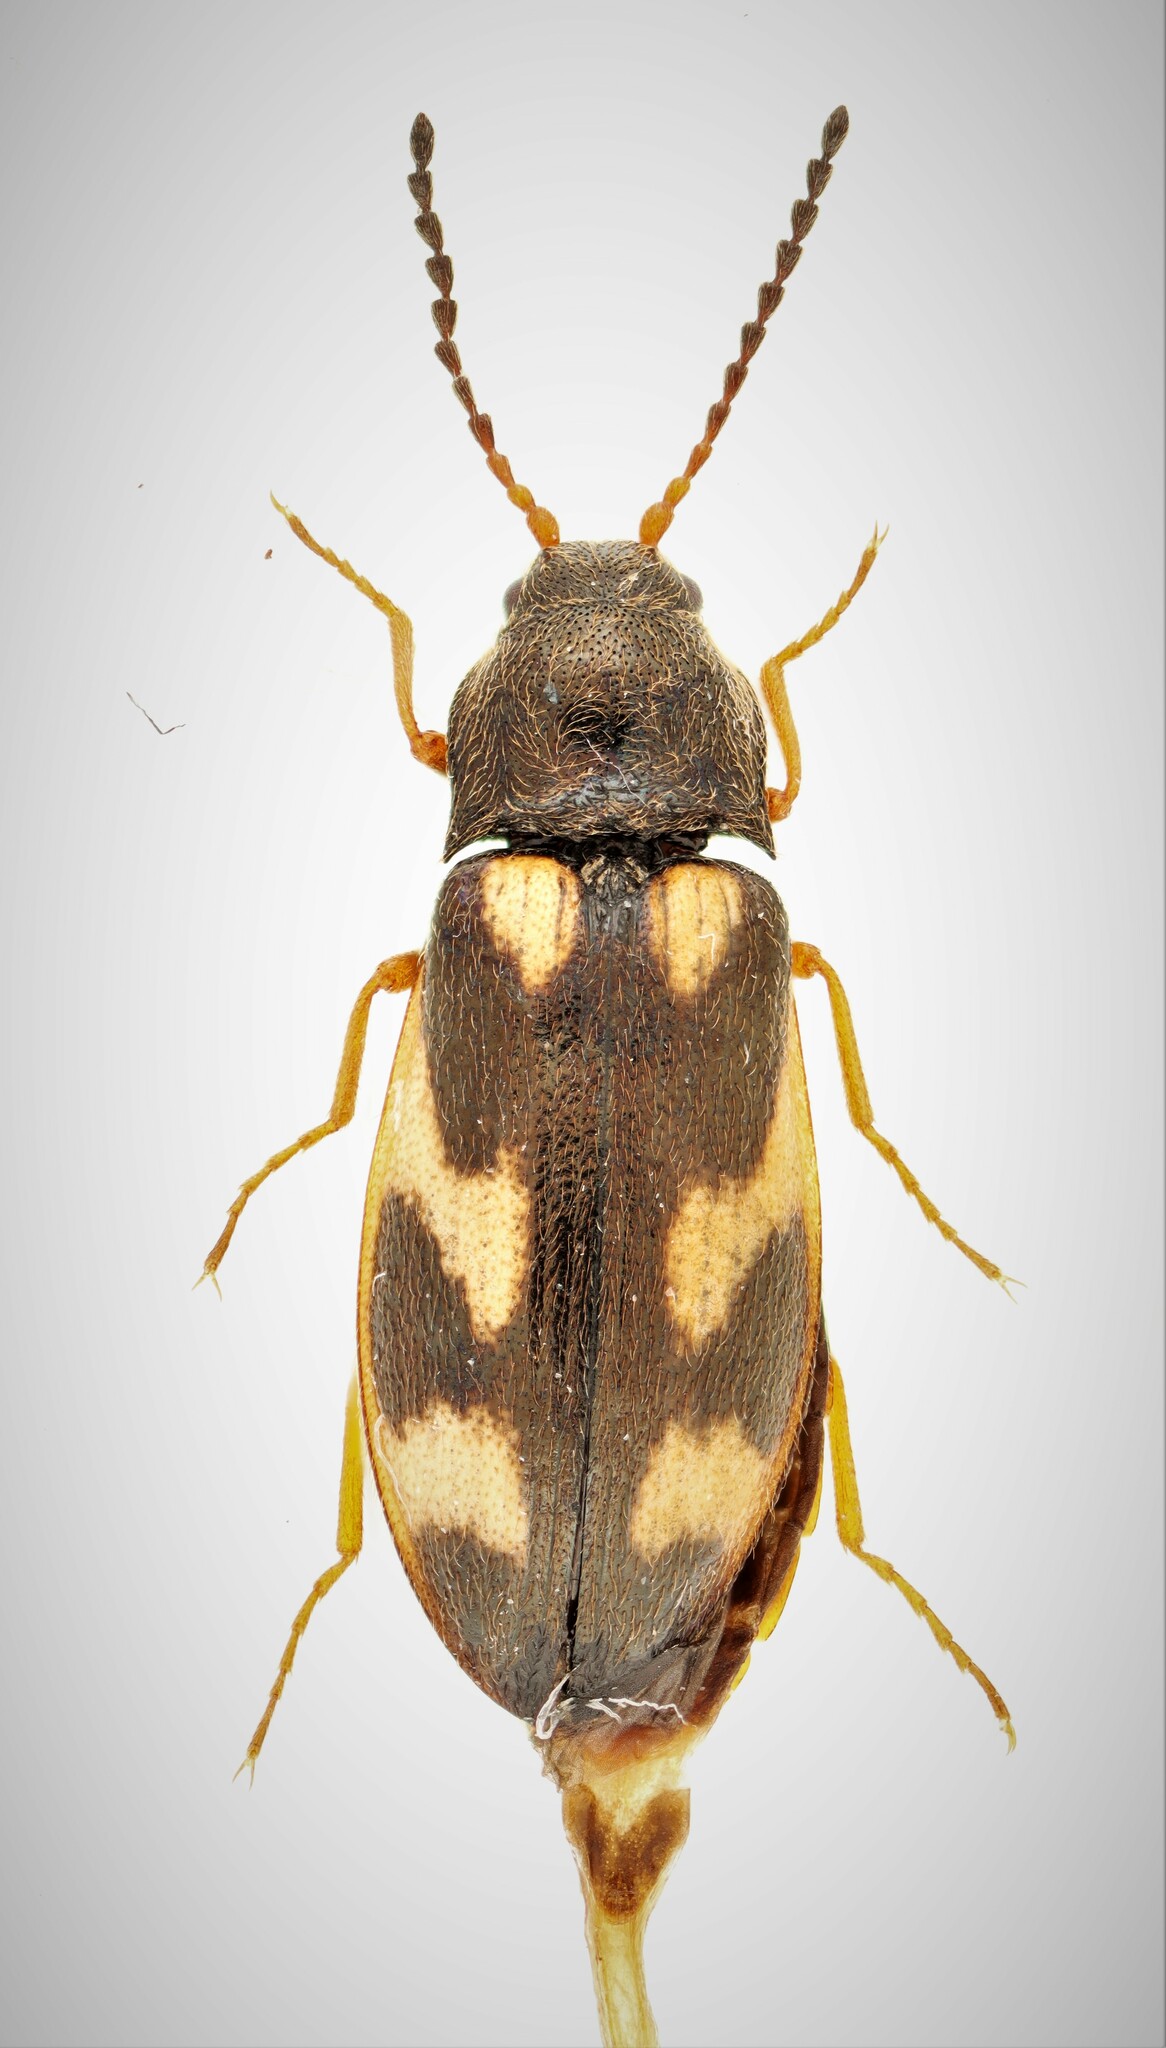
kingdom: Animalia
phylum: Arthropoda
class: Insecta
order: Coleoptera
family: Elateridae
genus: Eanus
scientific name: Eanus maculipennis
